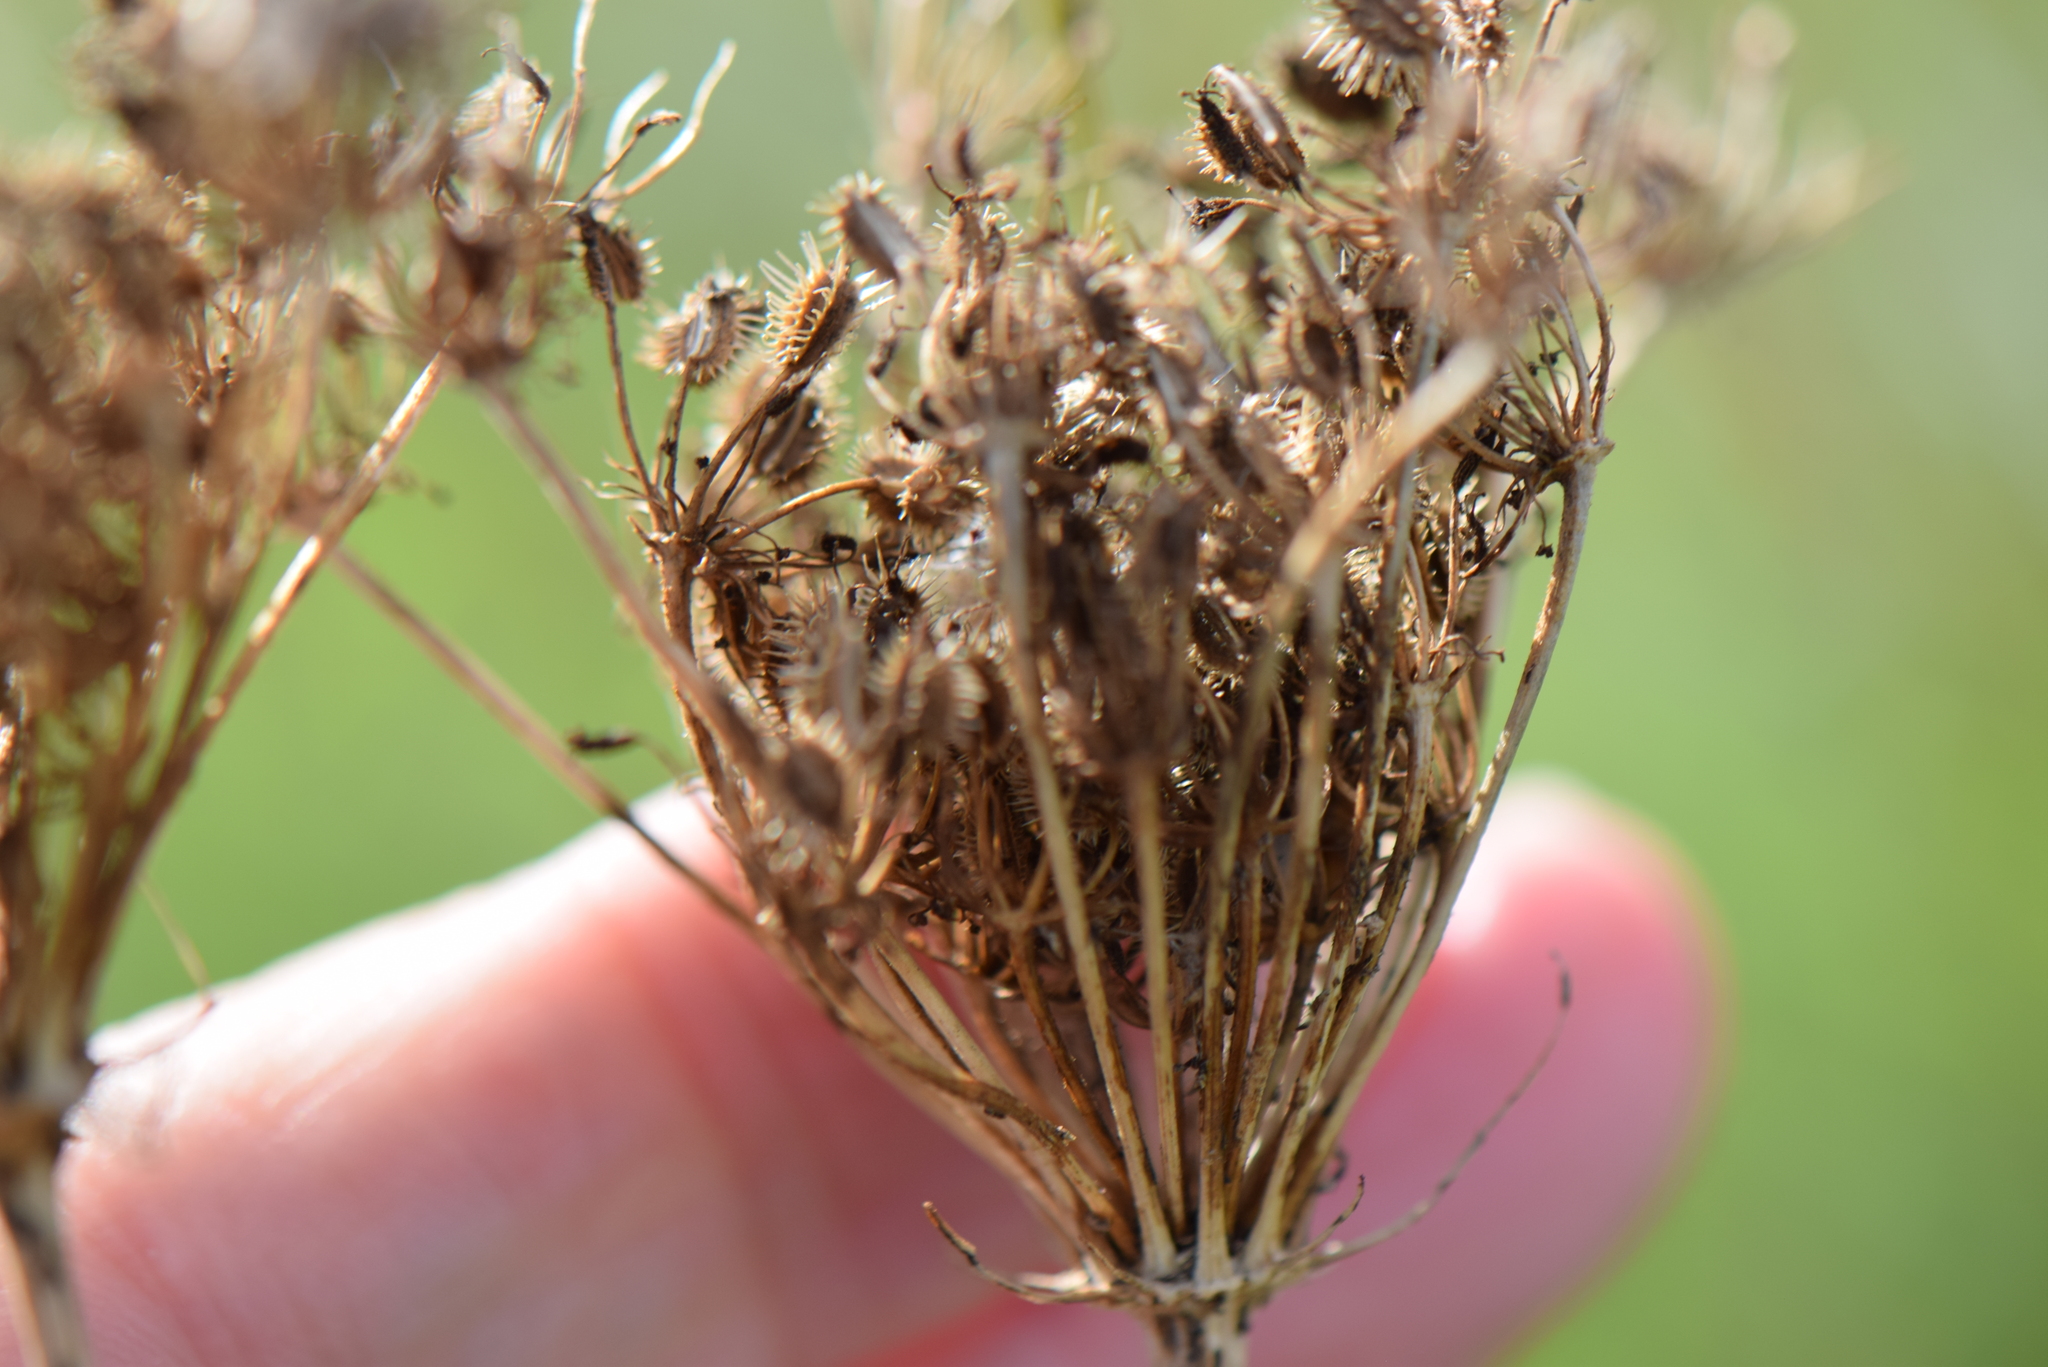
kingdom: Plantae
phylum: Tracheophyta
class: Magnoliopsida
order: Apiales
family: Apiaceae
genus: Daucus
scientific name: Daucus carota
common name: Wild carrot
